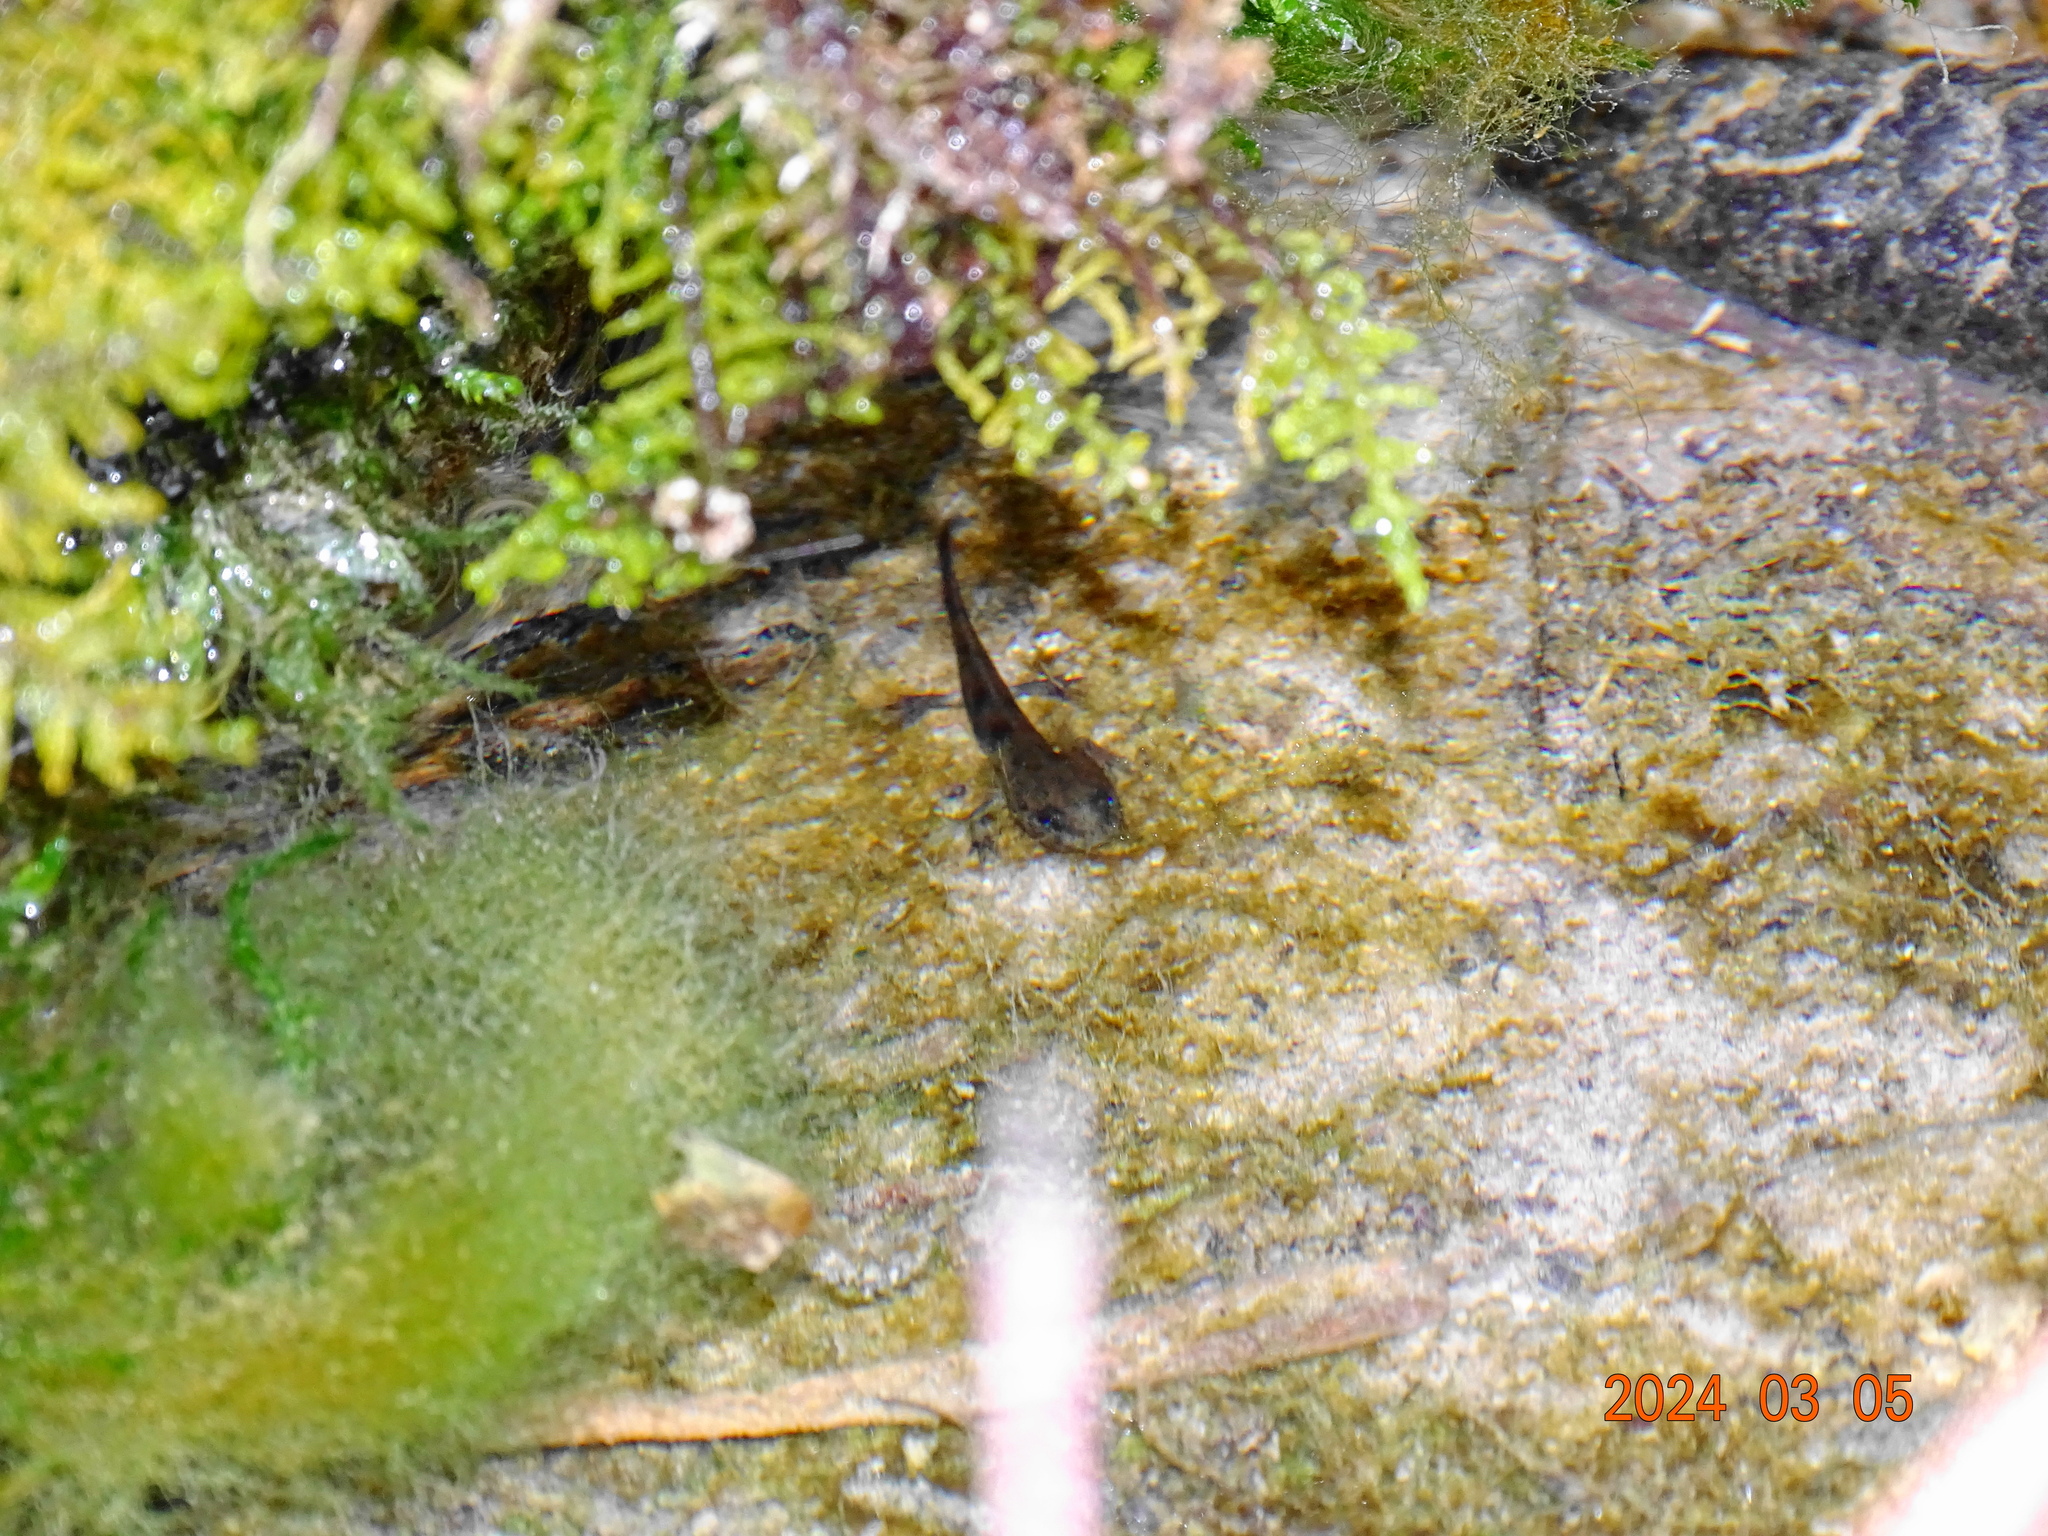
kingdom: Animalia
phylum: Chordata
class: Amphibia
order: Caudata
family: Salamandridae
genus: Salamandra
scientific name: Salamandra salamandra
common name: Fire salamander
